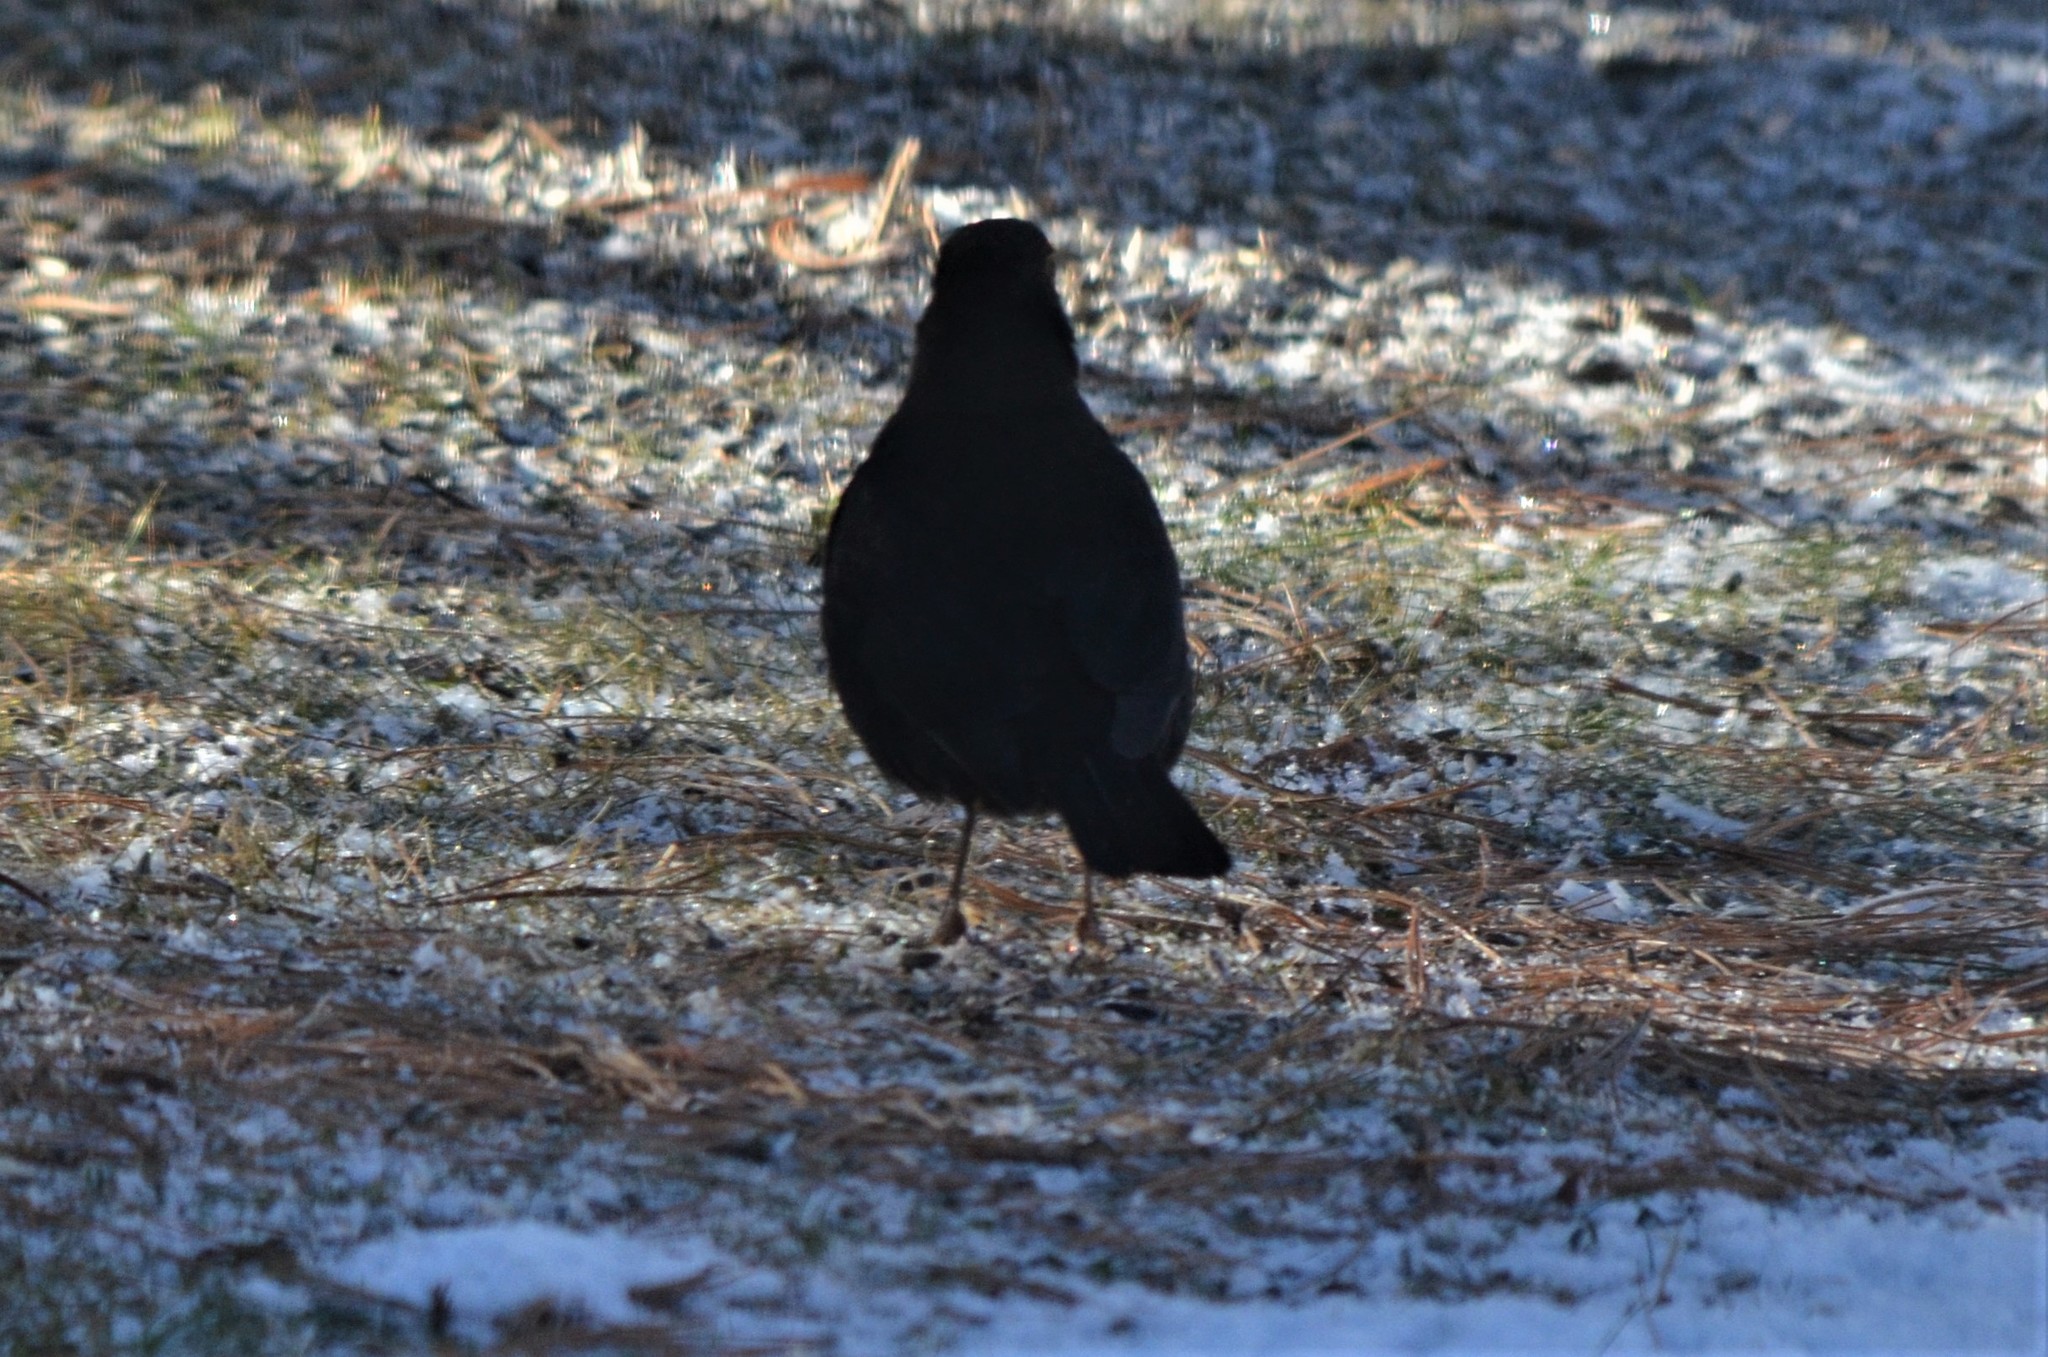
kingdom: Animalia
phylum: Chordata
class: Aves
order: Passeriformes
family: Turdidae
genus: Turdus
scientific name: Turdus merula
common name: Common blackbird
